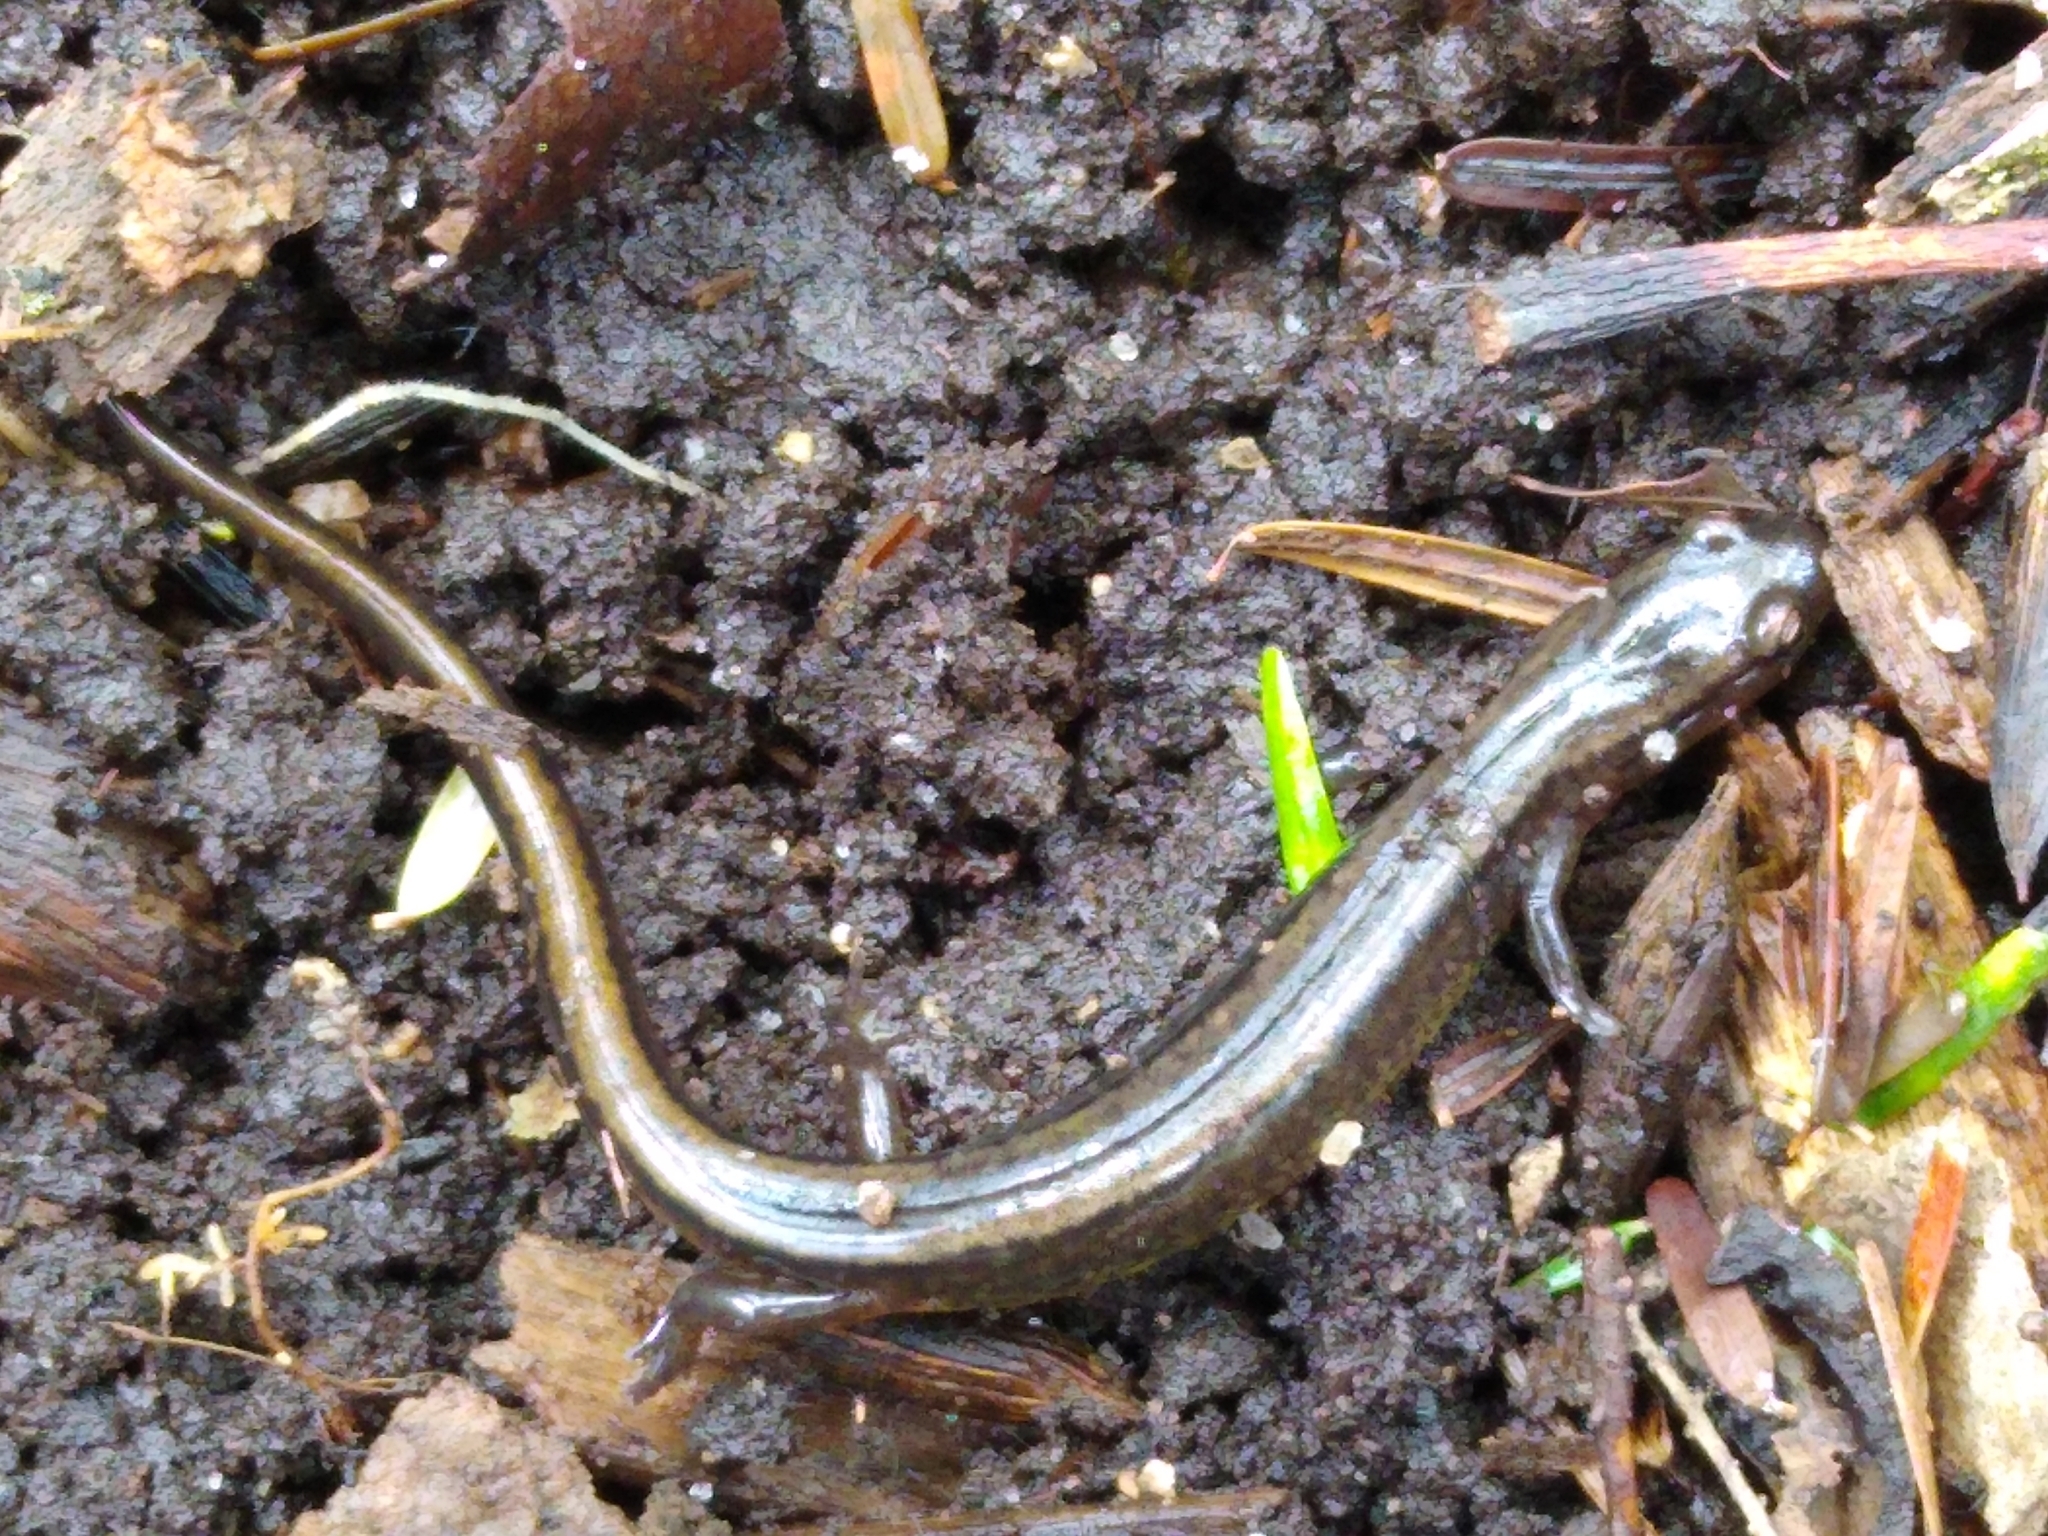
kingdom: Animalia
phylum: Chordata
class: Amphibia
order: Caudata
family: Plethodontidae
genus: Eurycea
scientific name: Eurycea bislineata
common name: Northern two-lined salamander
